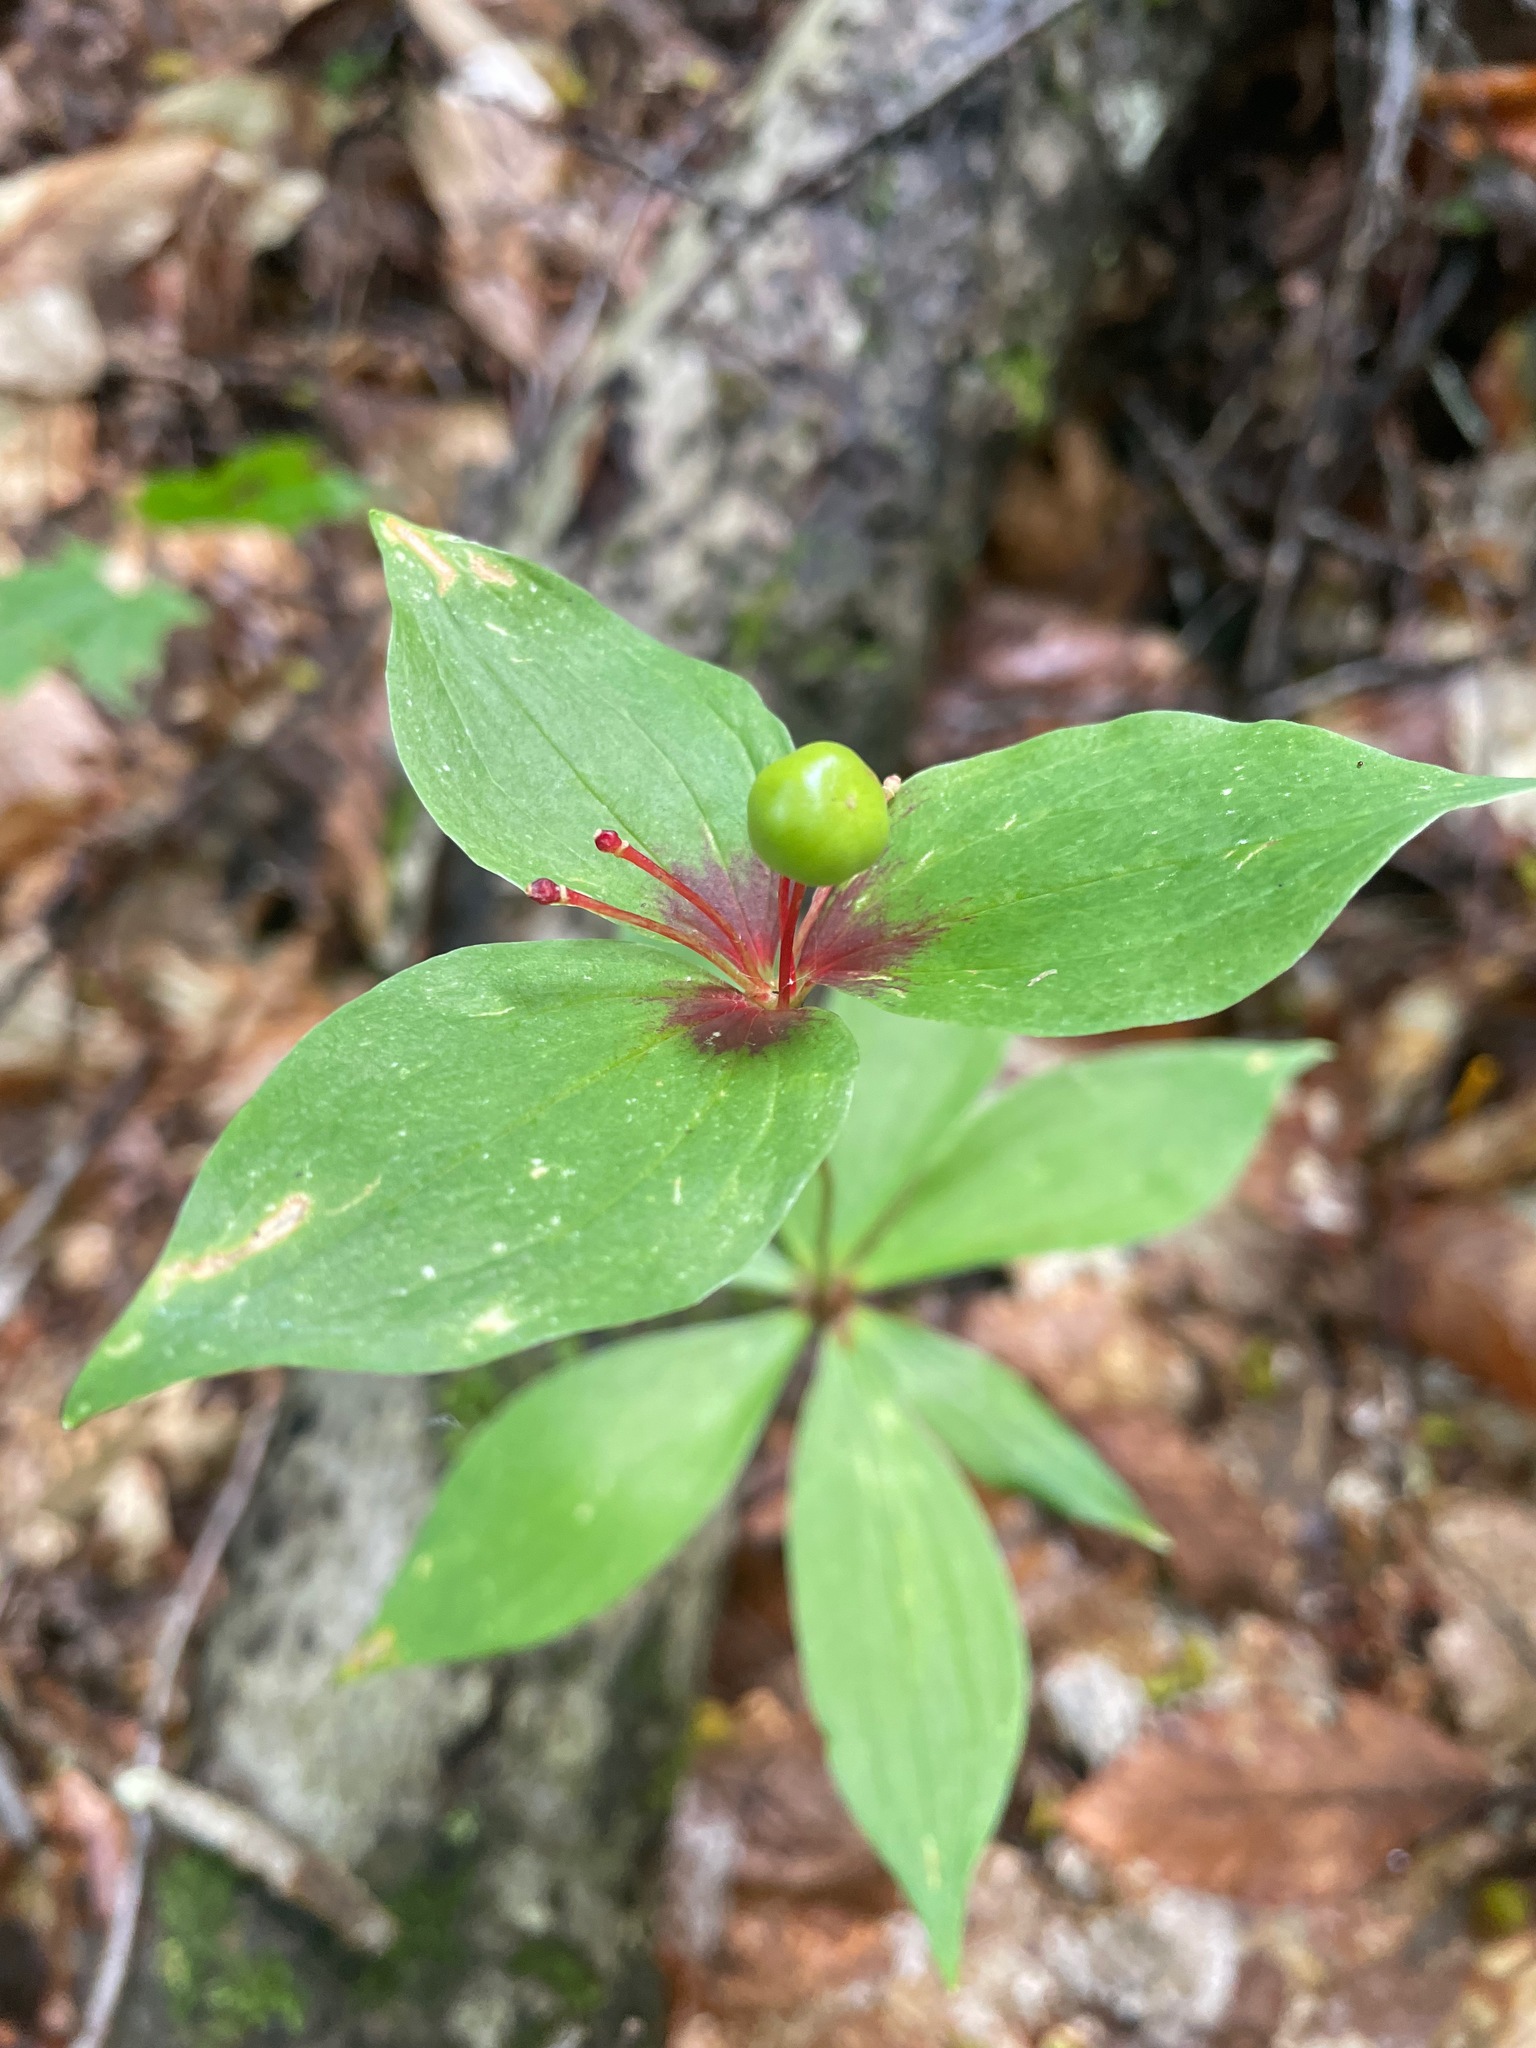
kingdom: Plantae
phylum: Tracheophyta
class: Liliopsida
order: Liliales
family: Liliaceae
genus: Medeola
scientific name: Medeola virginiana
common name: Indian cucumber-root
